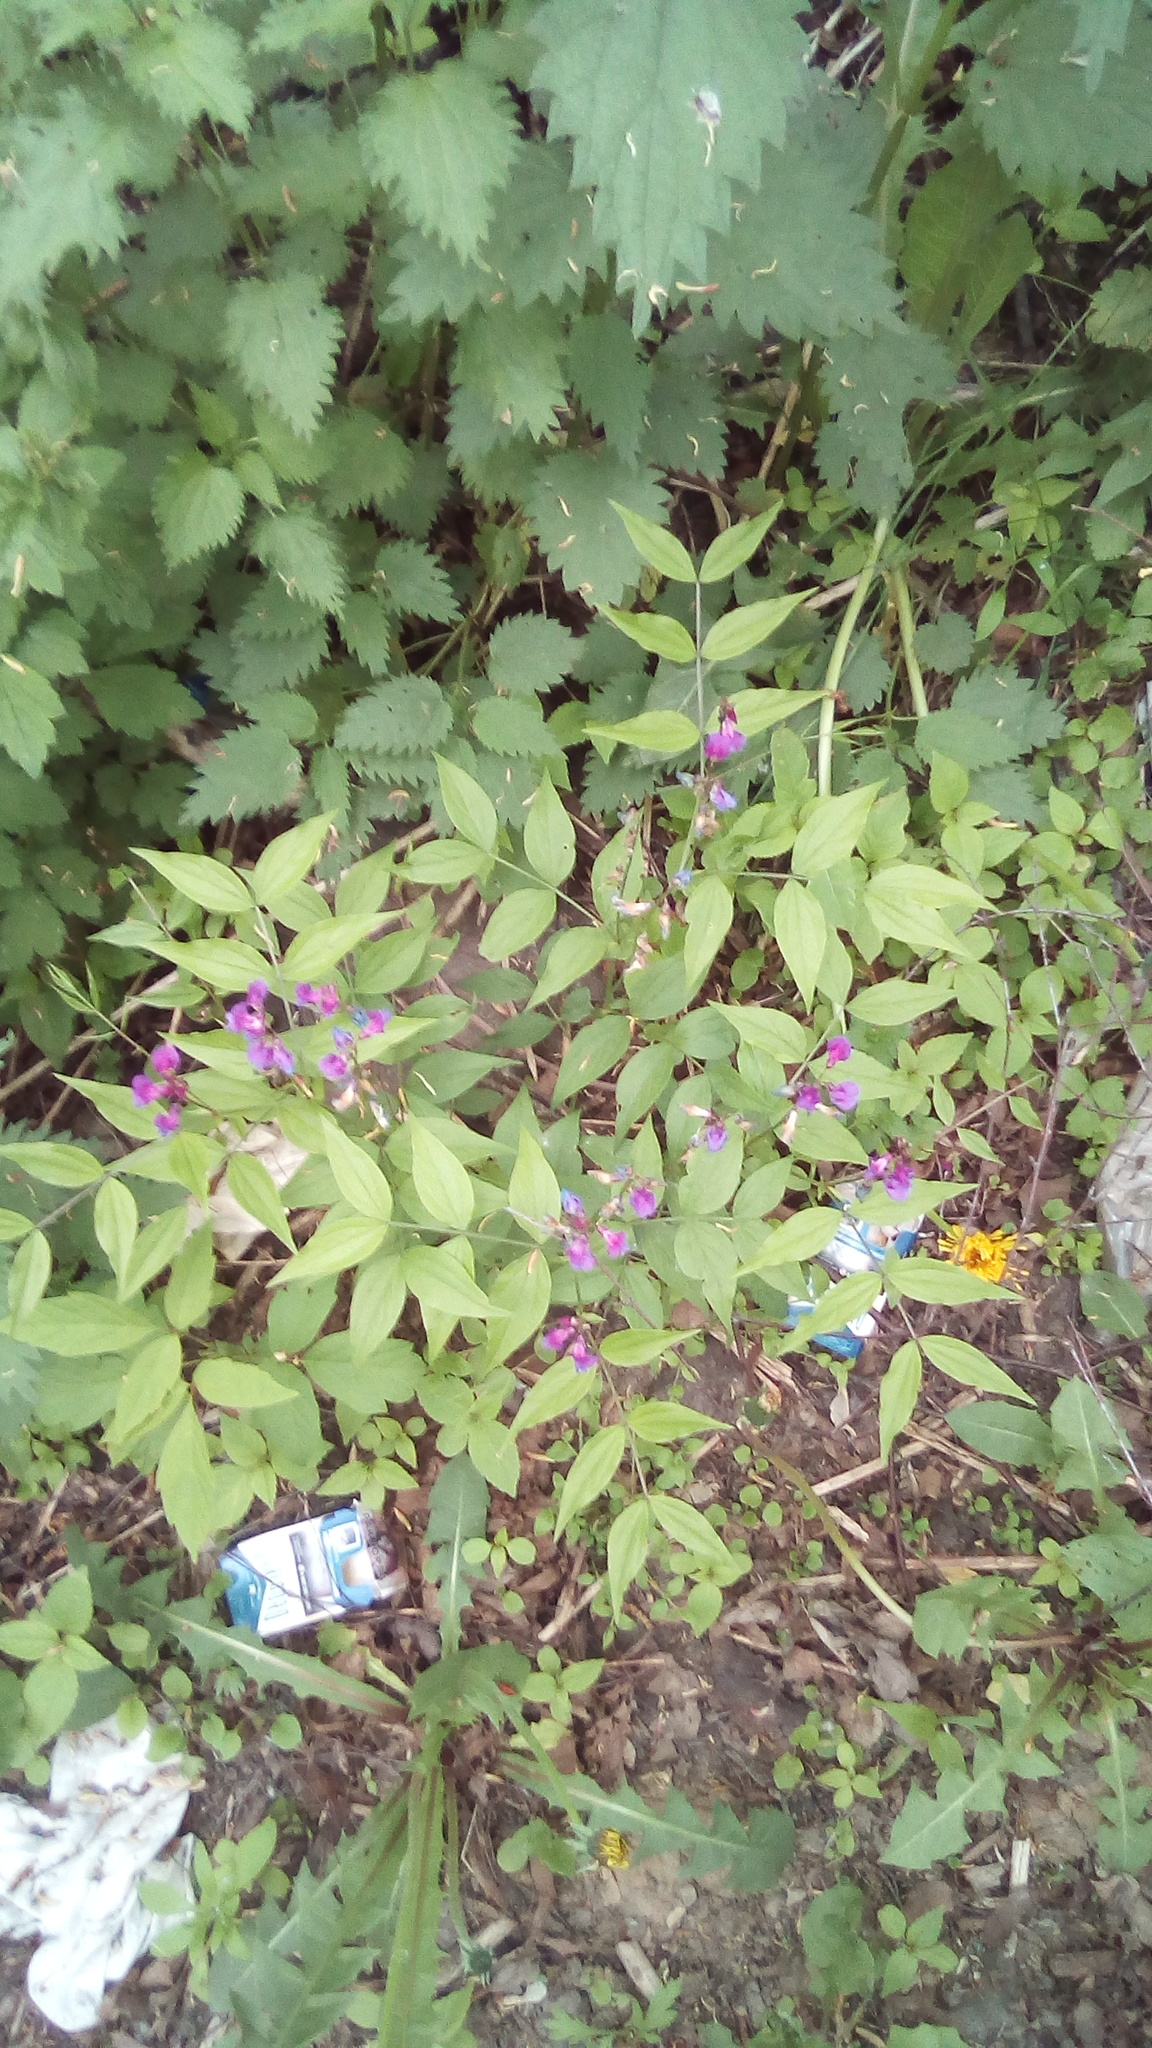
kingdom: Plantae
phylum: Tracheophyta
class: Magnoliopsida
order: Fabales
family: Fabaceae
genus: Lathyrus
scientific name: Lathyrus vernus
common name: Spring pea
